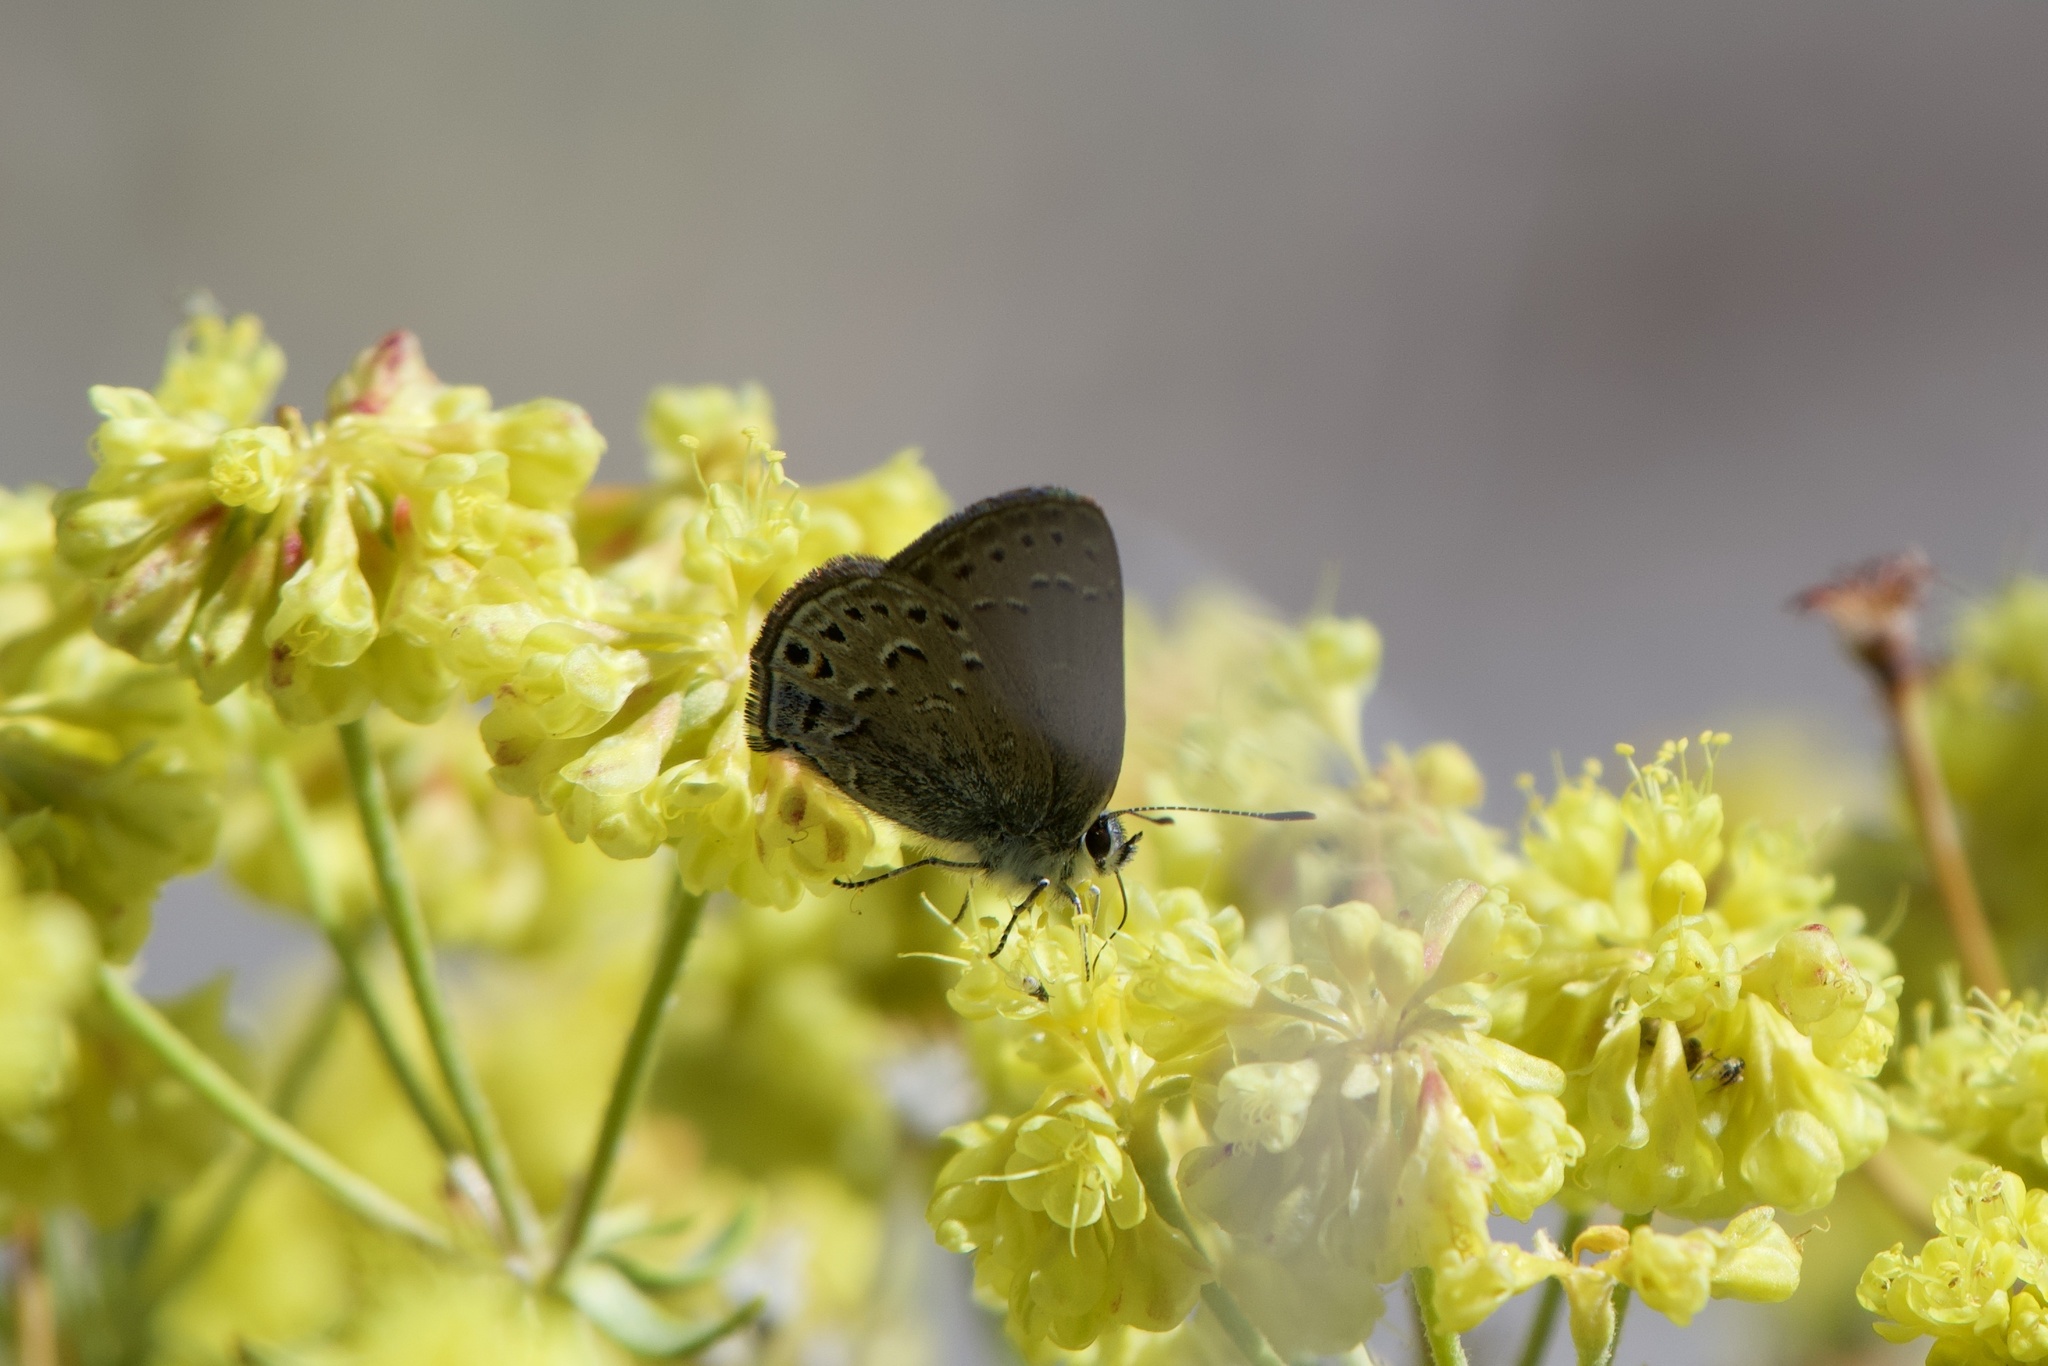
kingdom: Animalia
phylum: Arthropoda
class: Insecta
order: Lepidoptera
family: Lycaenidae
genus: Satyrium
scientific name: Satyrium behrii
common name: Behr's hairstreak
